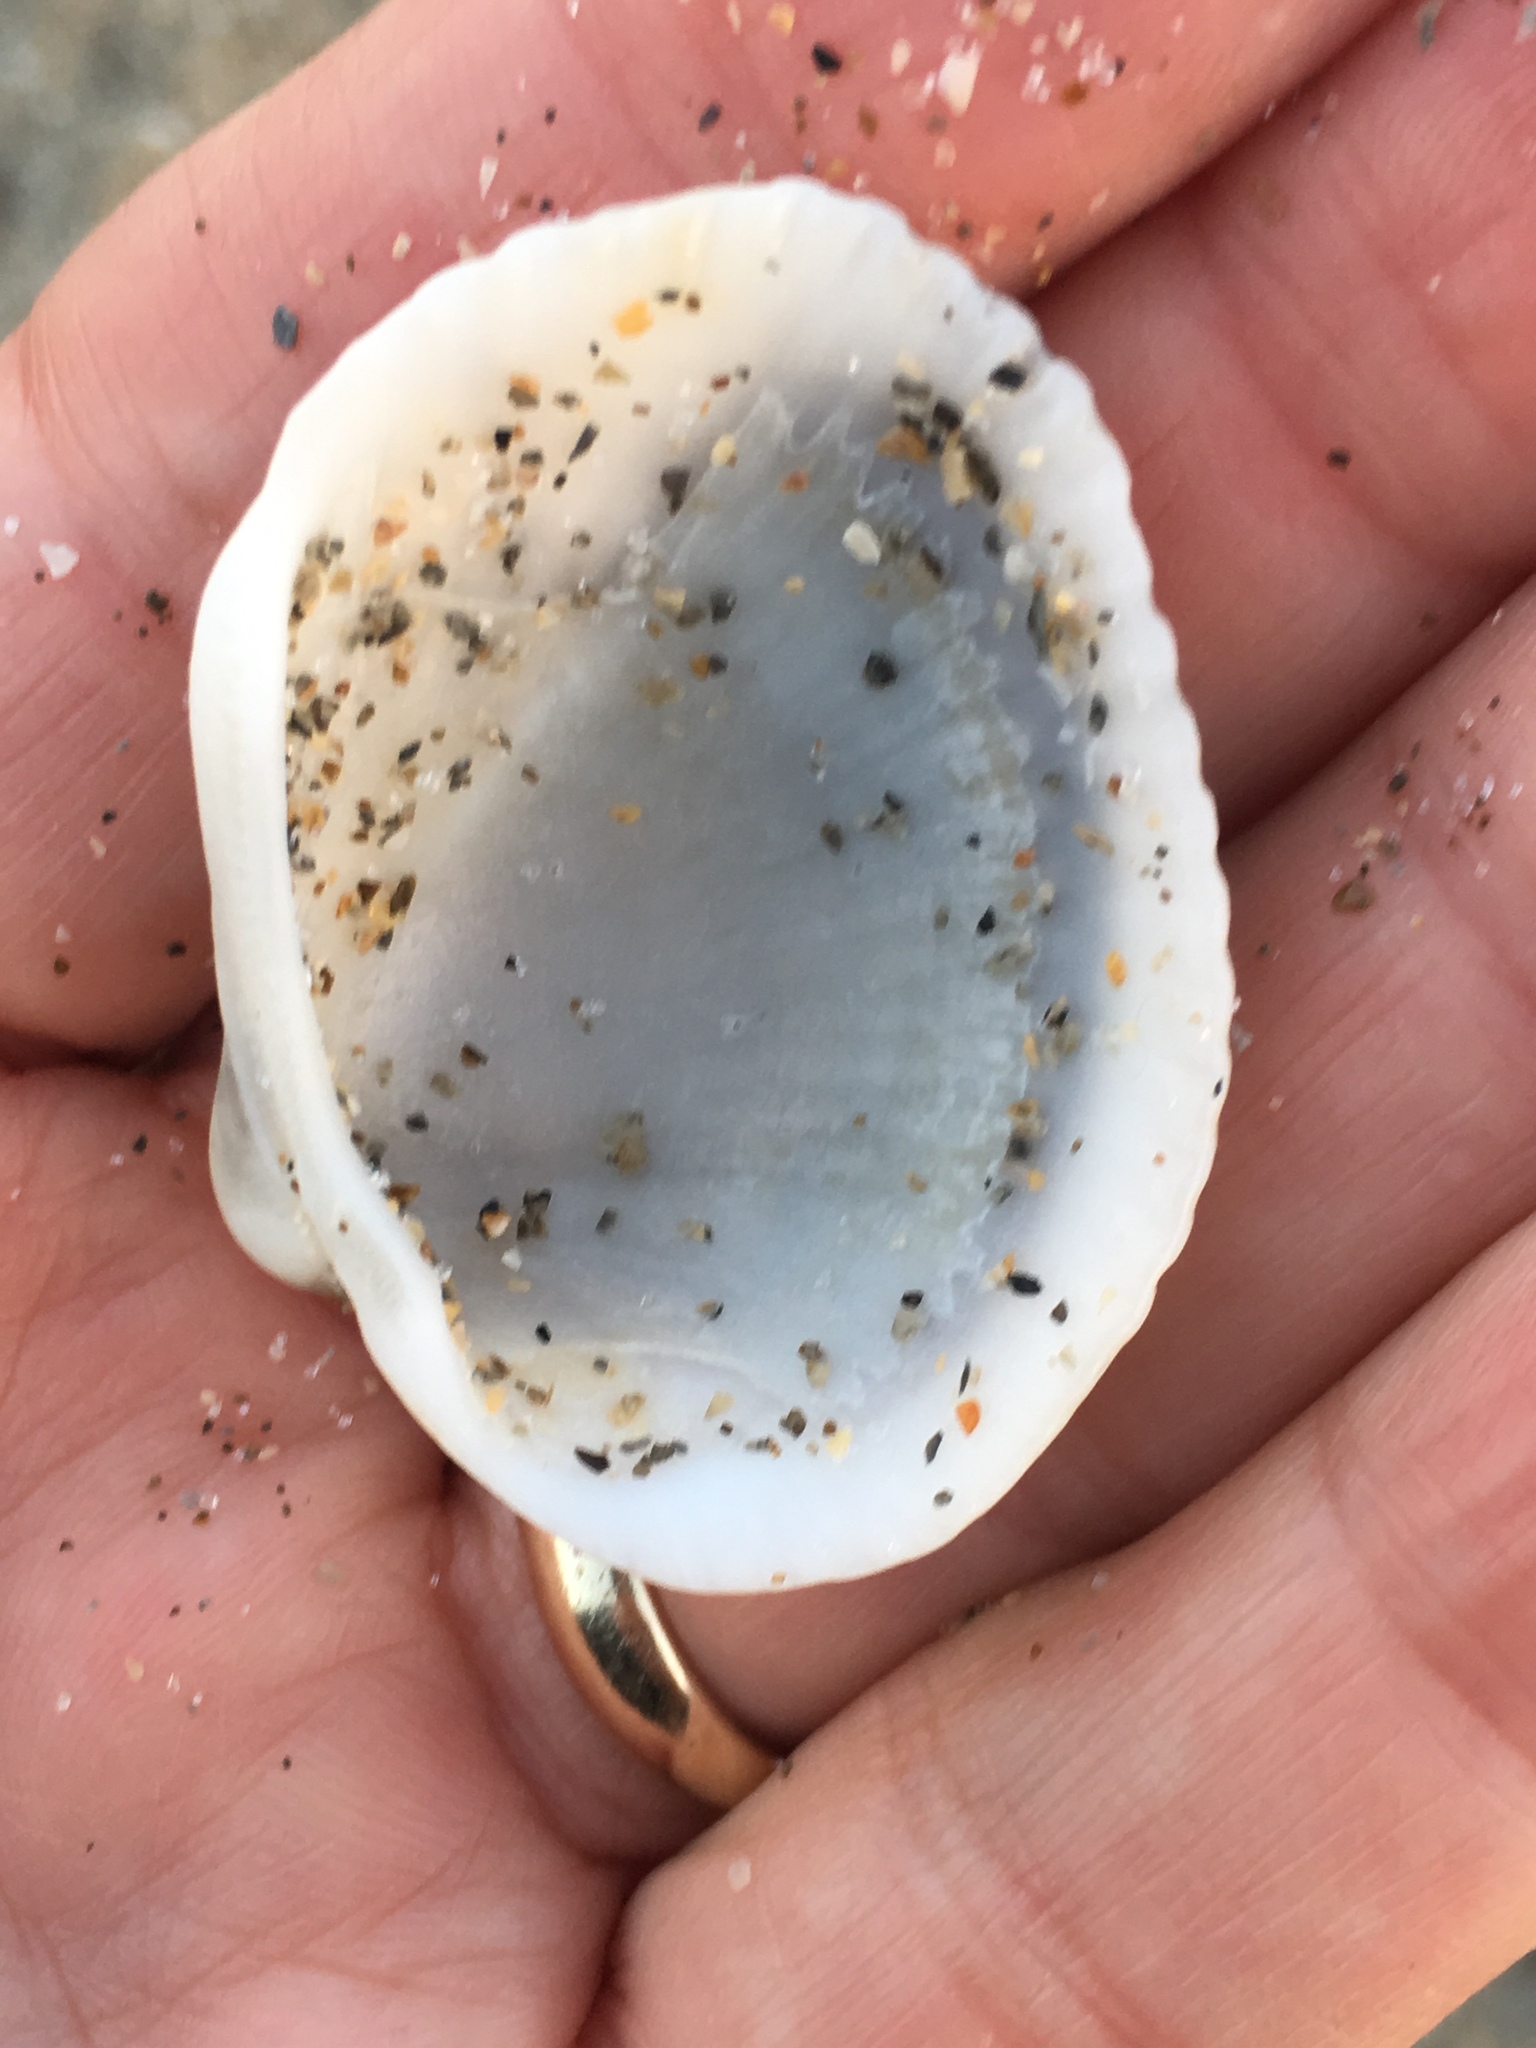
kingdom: Animalia
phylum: Mollusca
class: Bivalvia
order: Arcida
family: Arcidae
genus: Lunarca
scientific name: Lunarca ovalis
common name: Blood ark
